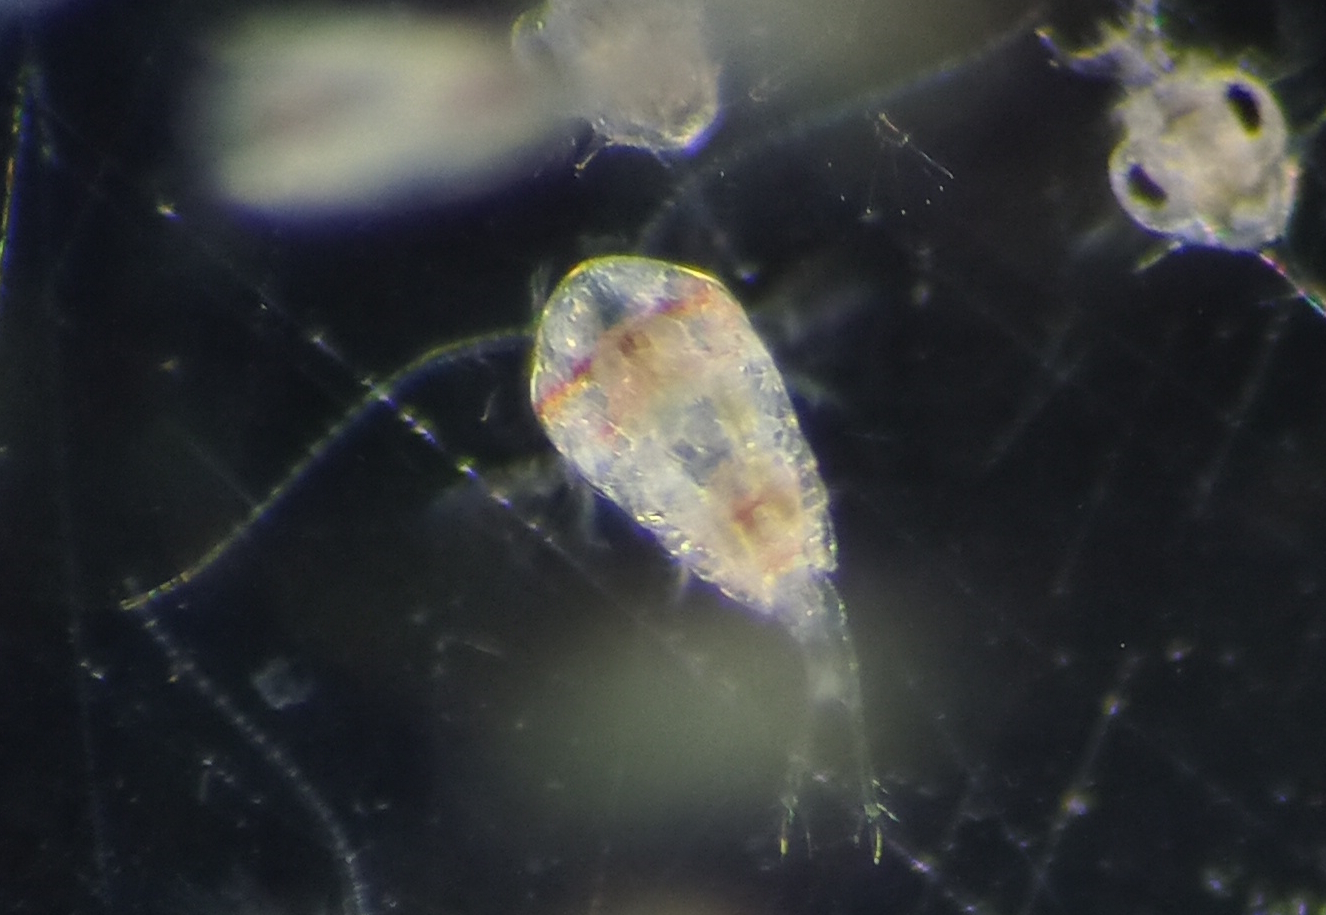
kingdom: Animalia
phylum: Arthropoda
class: Copepoda
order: Calanoida
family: Temoridae
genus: Temora
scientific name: Temora turbinata
